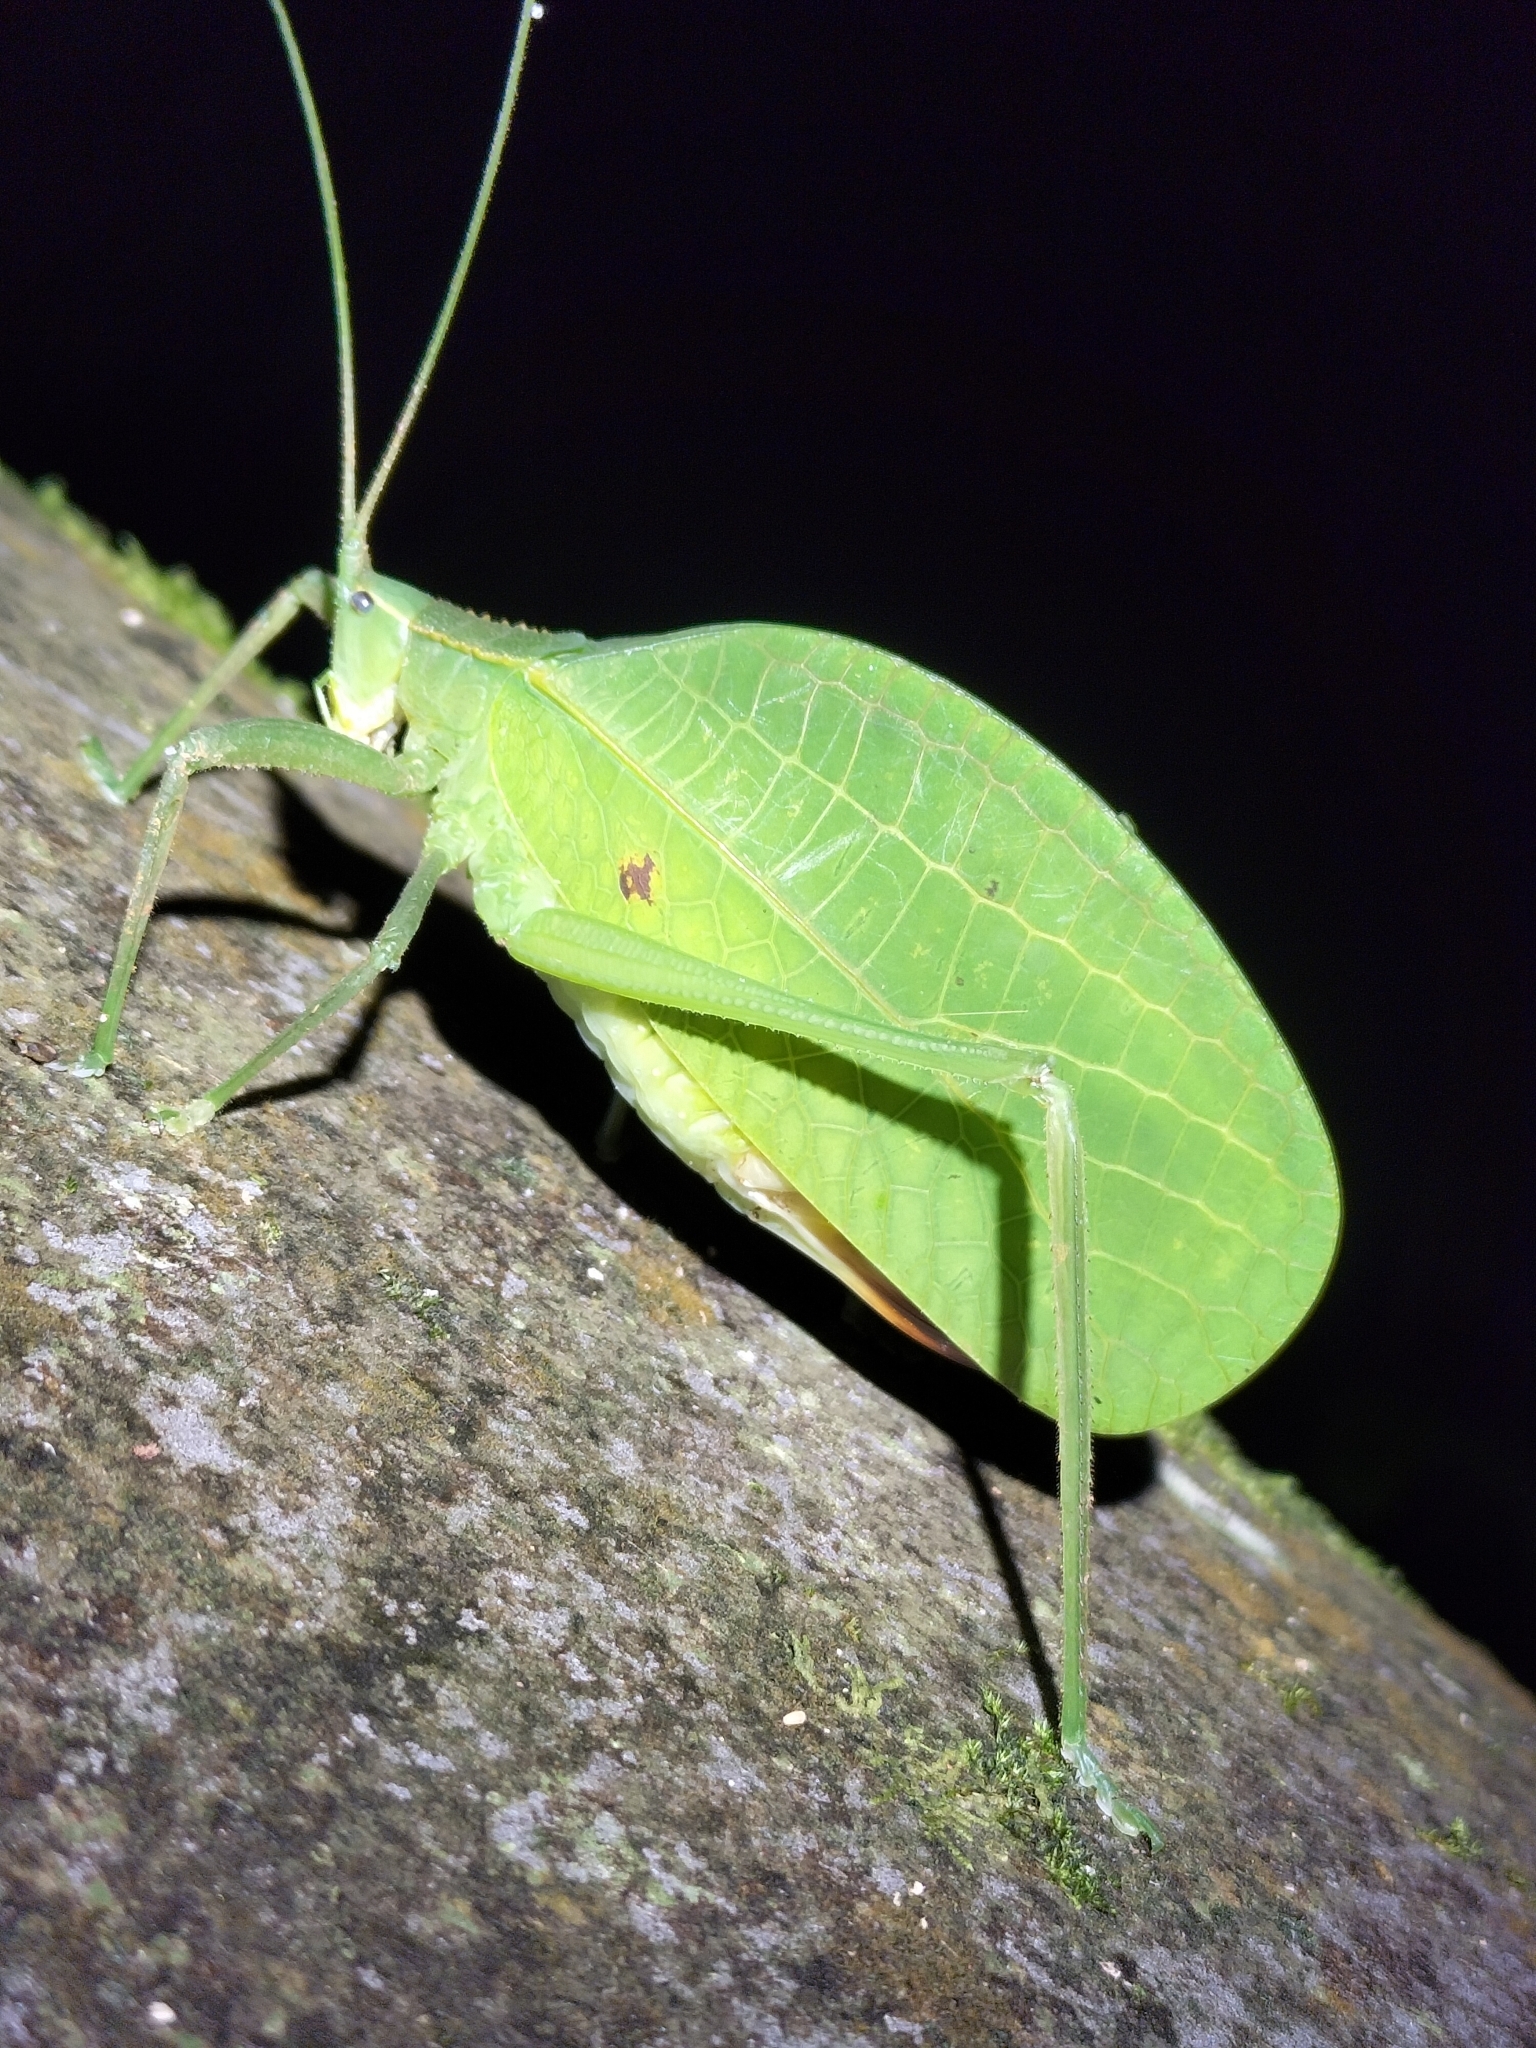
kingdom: Animalia
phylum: Arthropoda
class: Insecta
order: Orthoptera
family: Tettigoniidae
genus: Mastighaphoides
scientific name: Mastighaphoides tuberculatus
